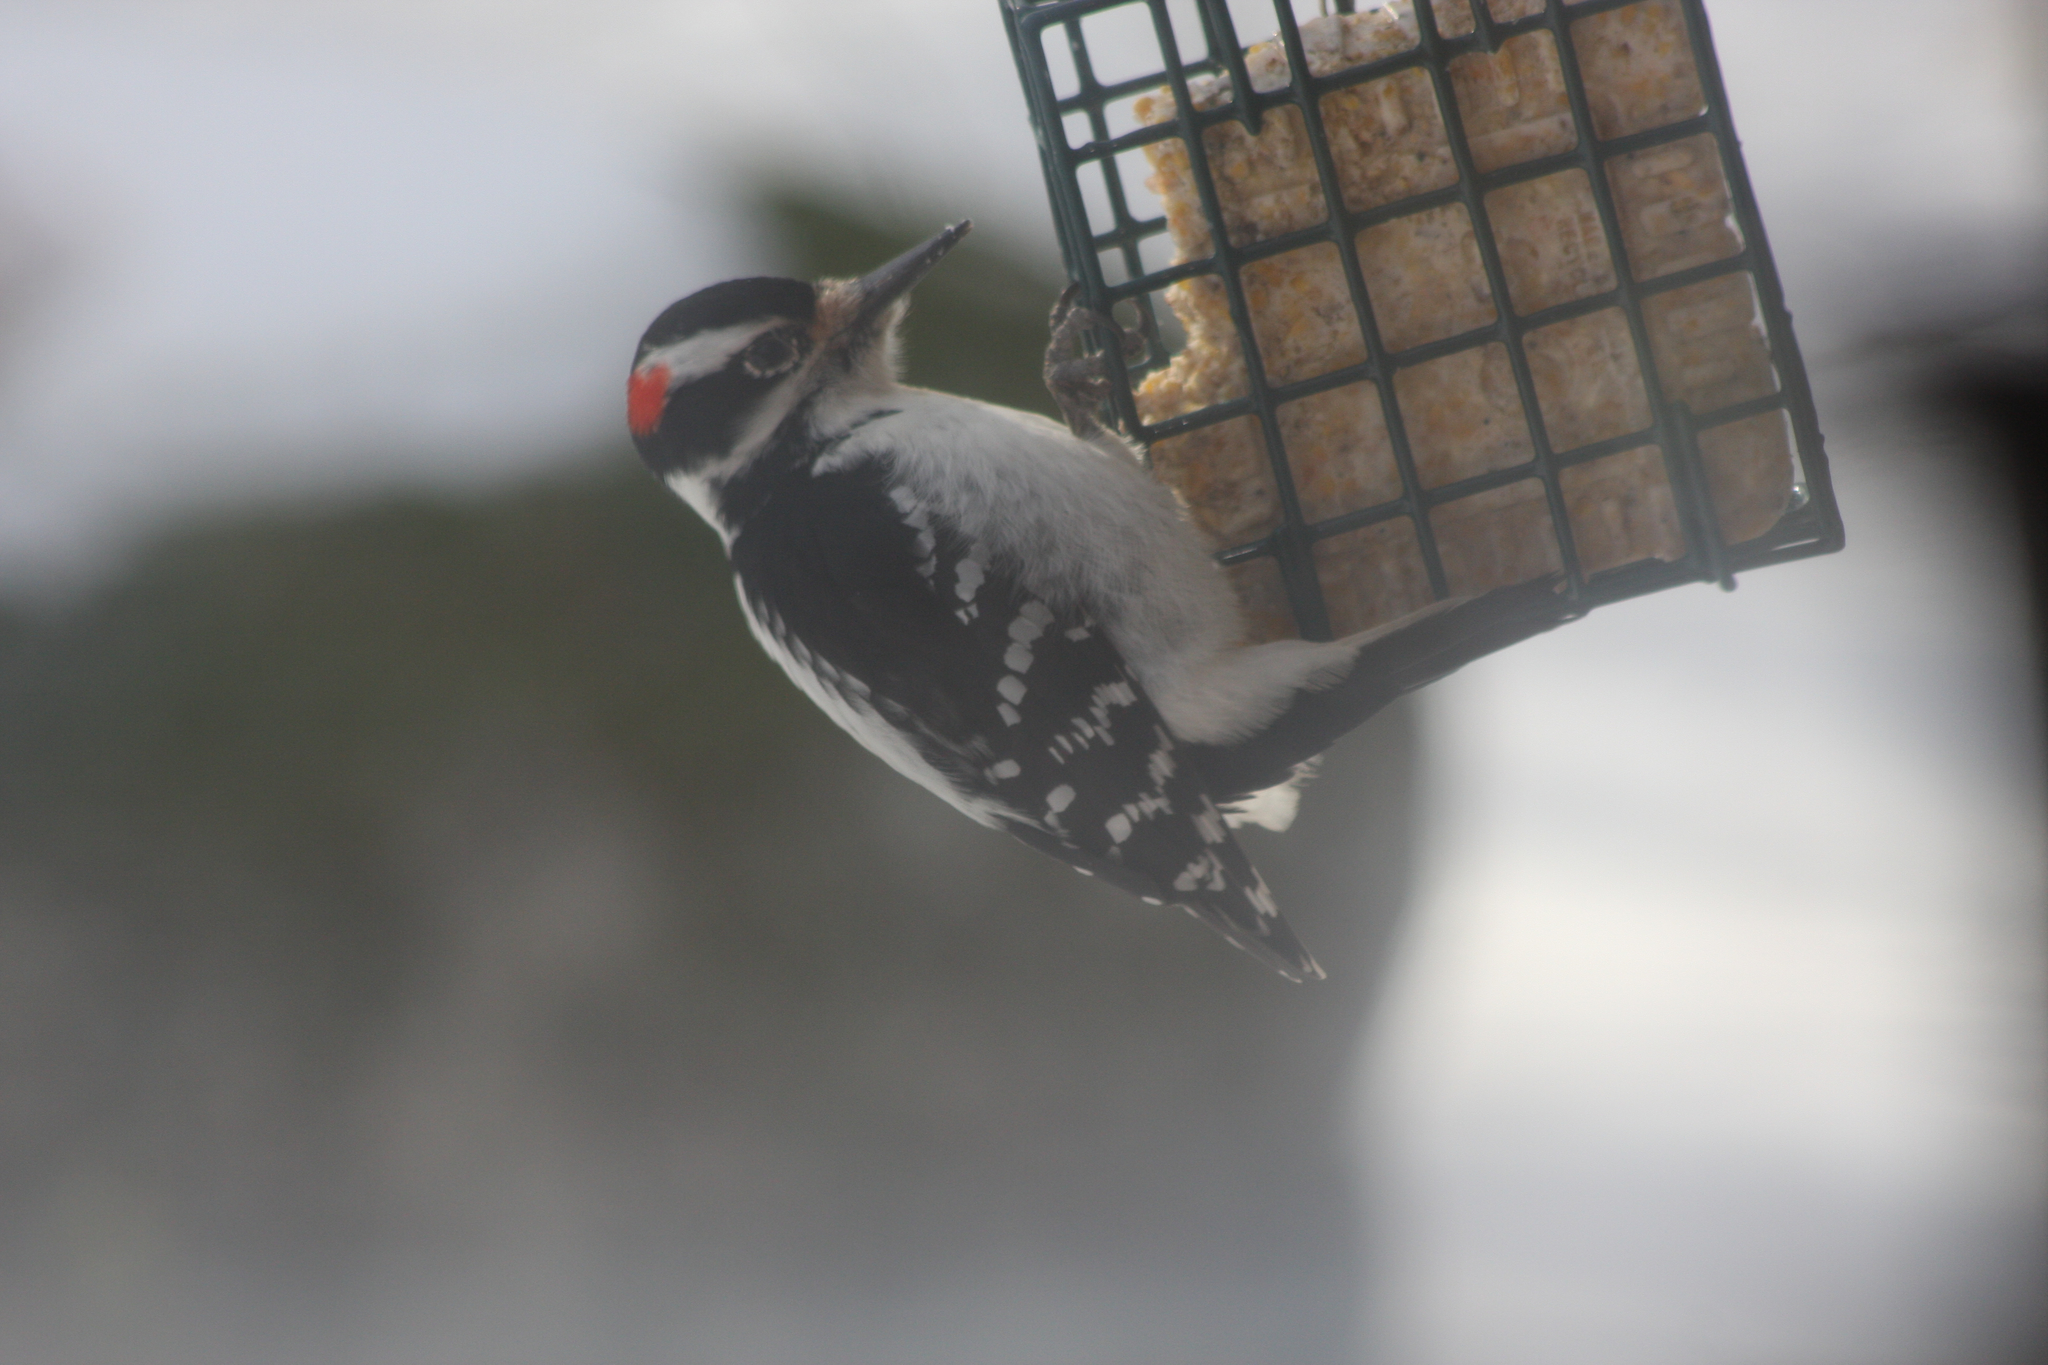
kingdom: Animalia
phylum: Chordata
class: Aves
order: Piciformes
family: Picidae
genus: Leuconotopicus
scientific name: Leuconotopicus villosus
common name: Hairy woodpecker
